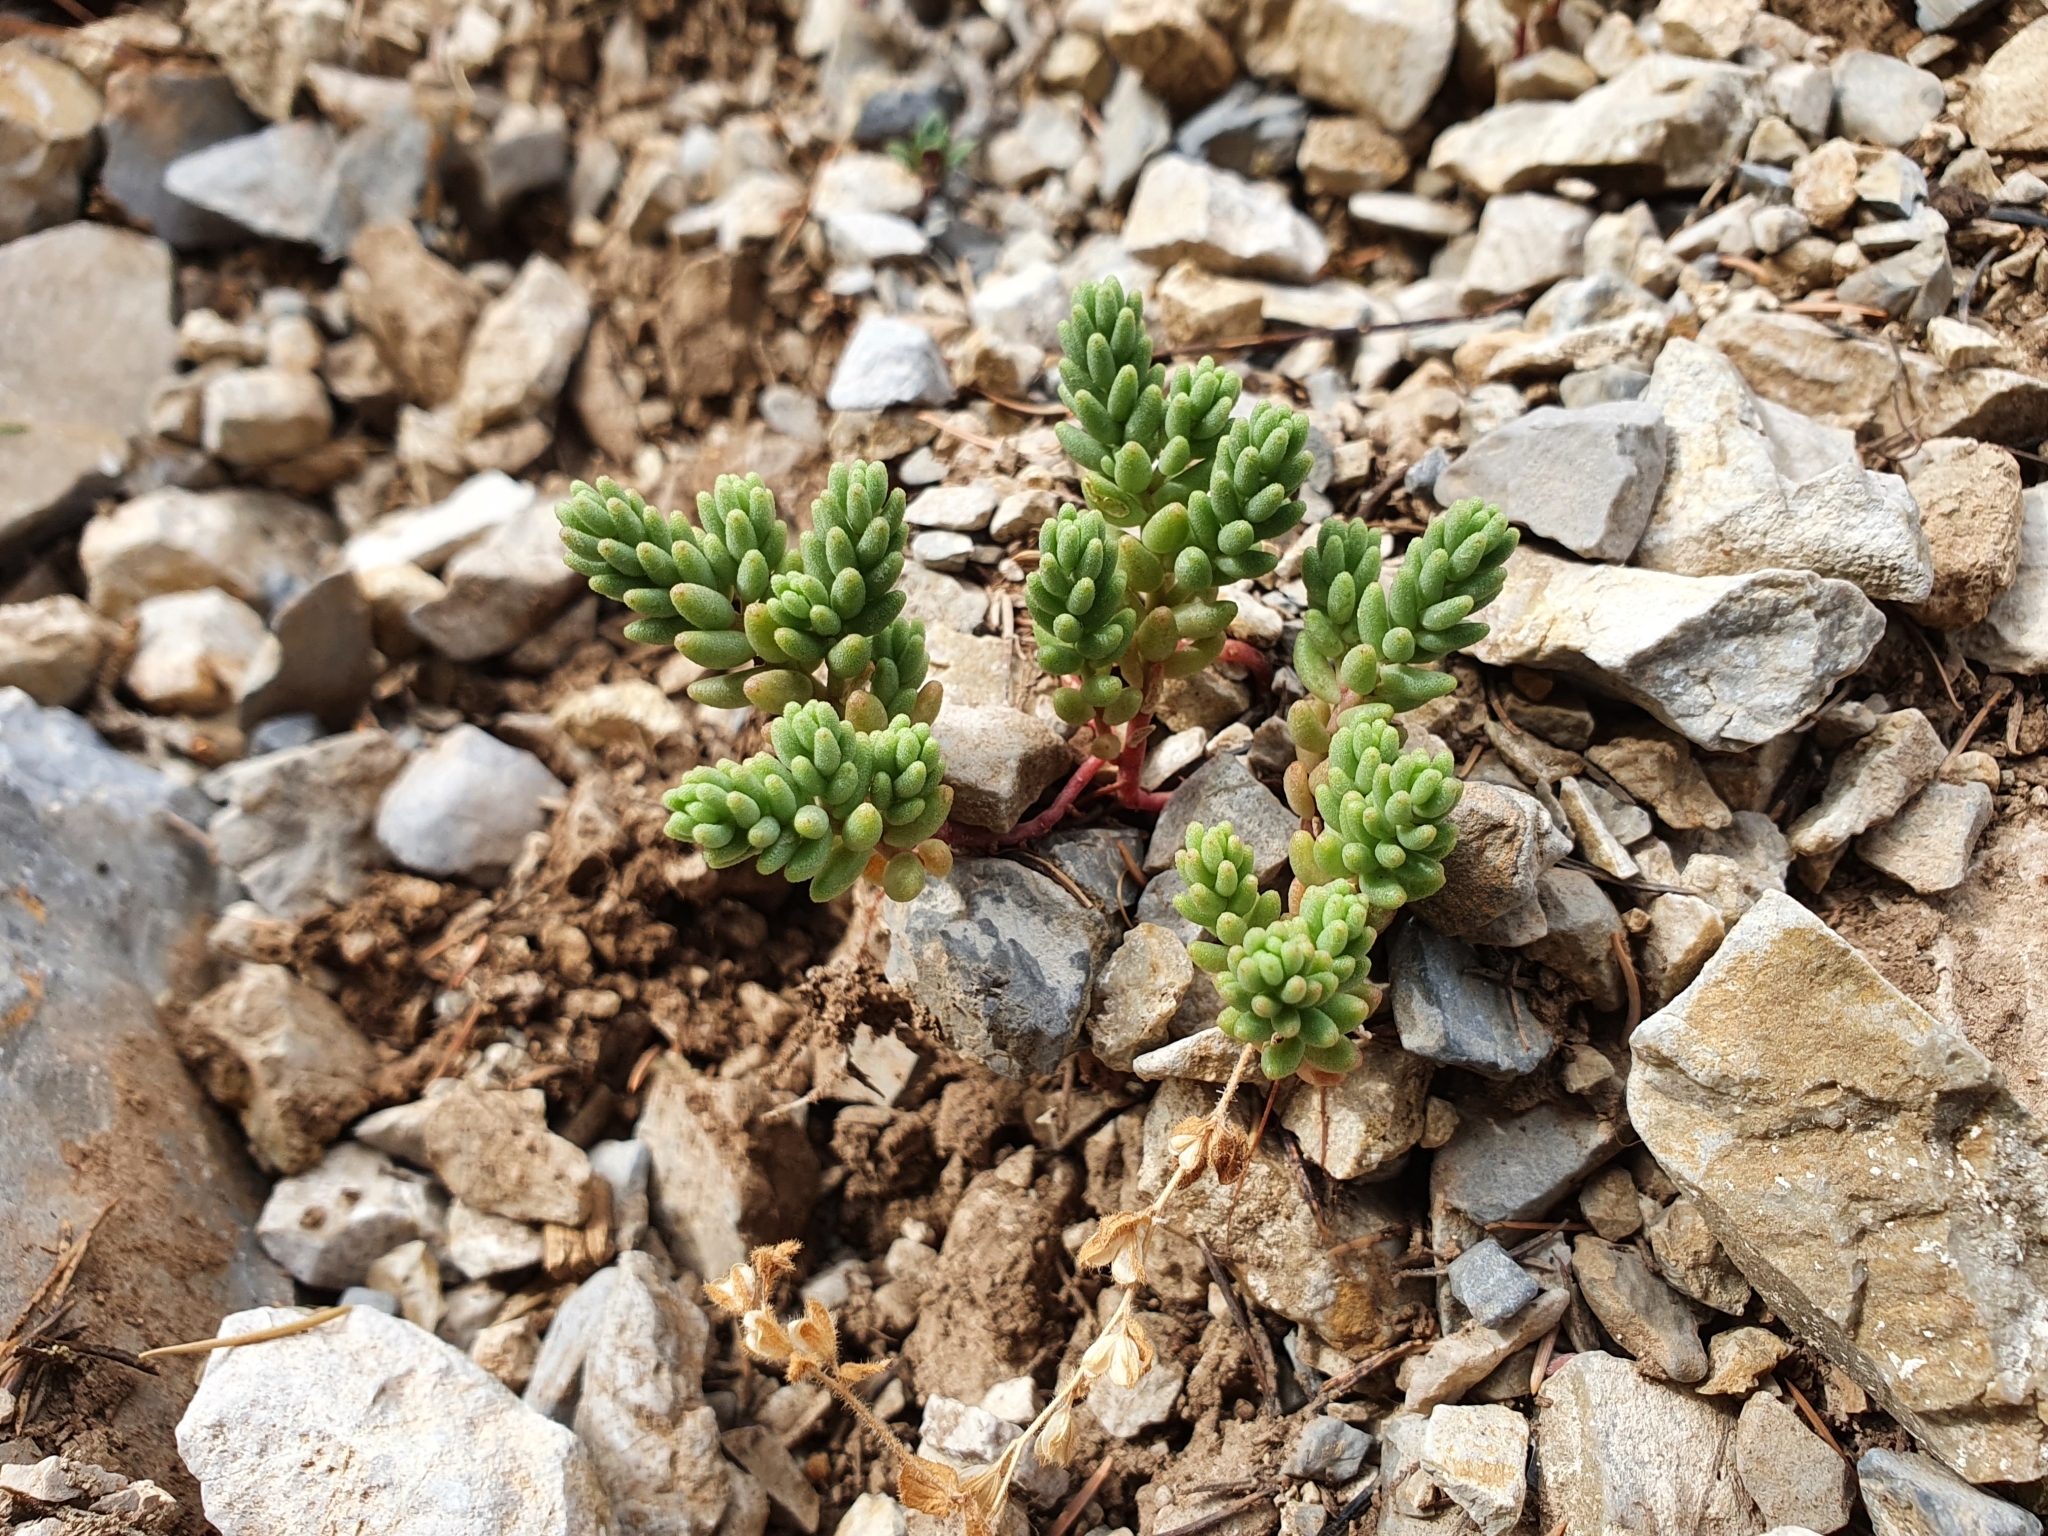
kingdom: Plantae
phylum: Tracheophyta
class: Magnoliopsida
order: Saxifragales
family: Crassulaceae
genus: Sedum
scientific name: Sedum album
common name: White stonecrop
